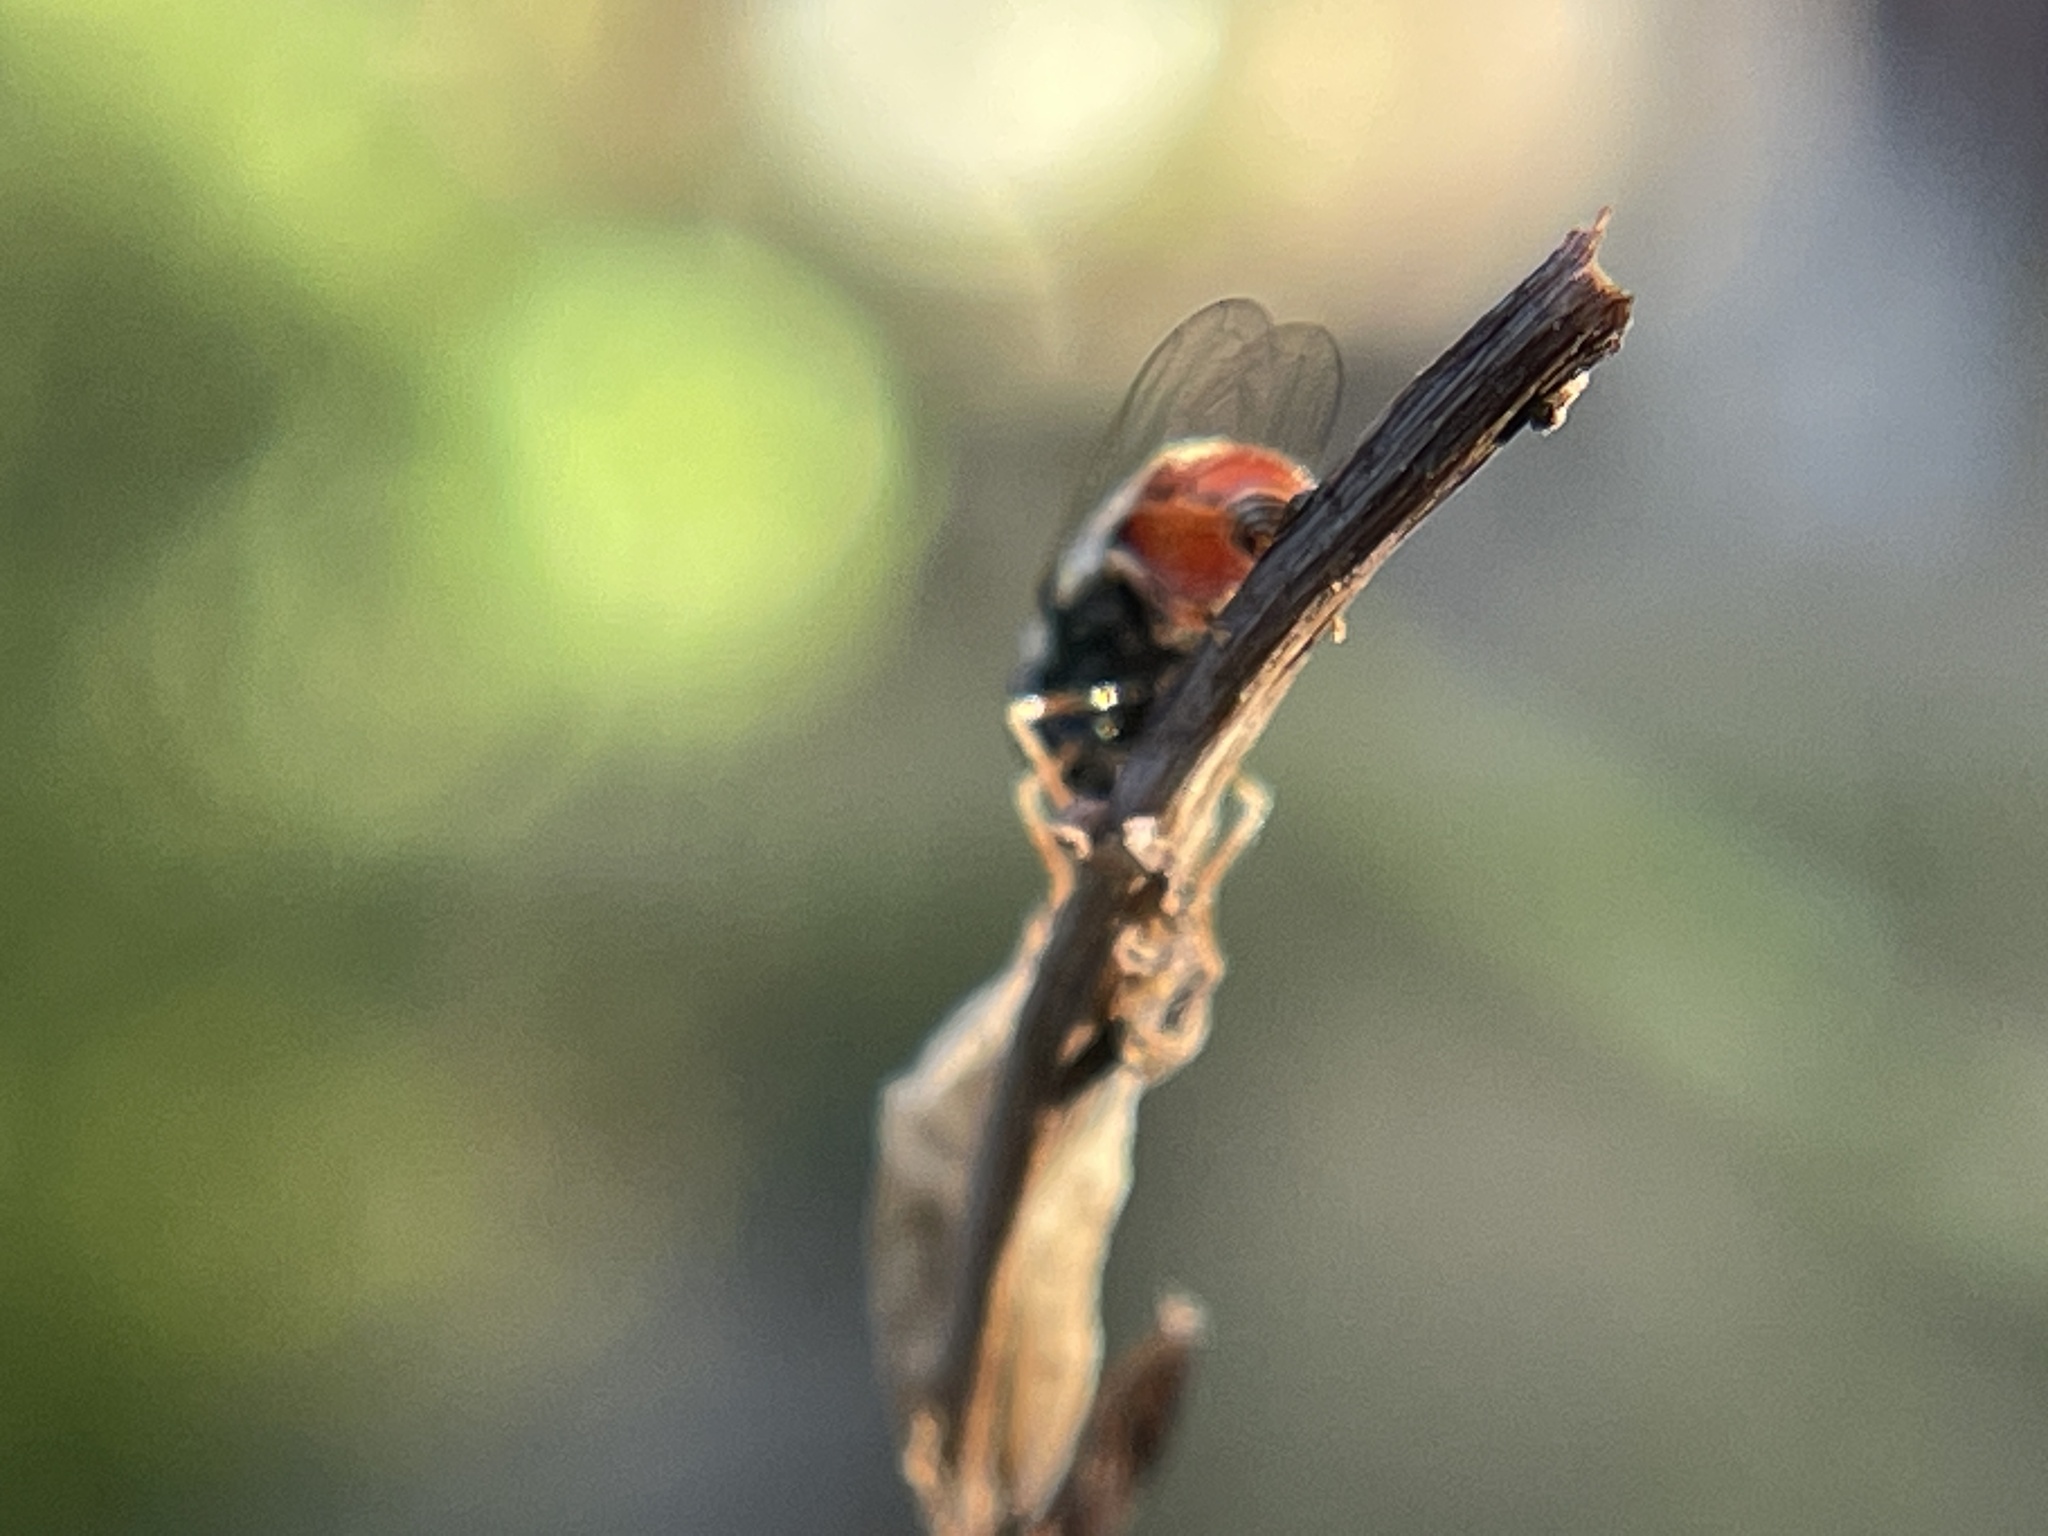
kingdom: Animalia
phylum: Arthropoda
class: Insecta
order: Diptera
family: Syrphidae
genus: Paragus
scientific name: Paragus haemorrhous
